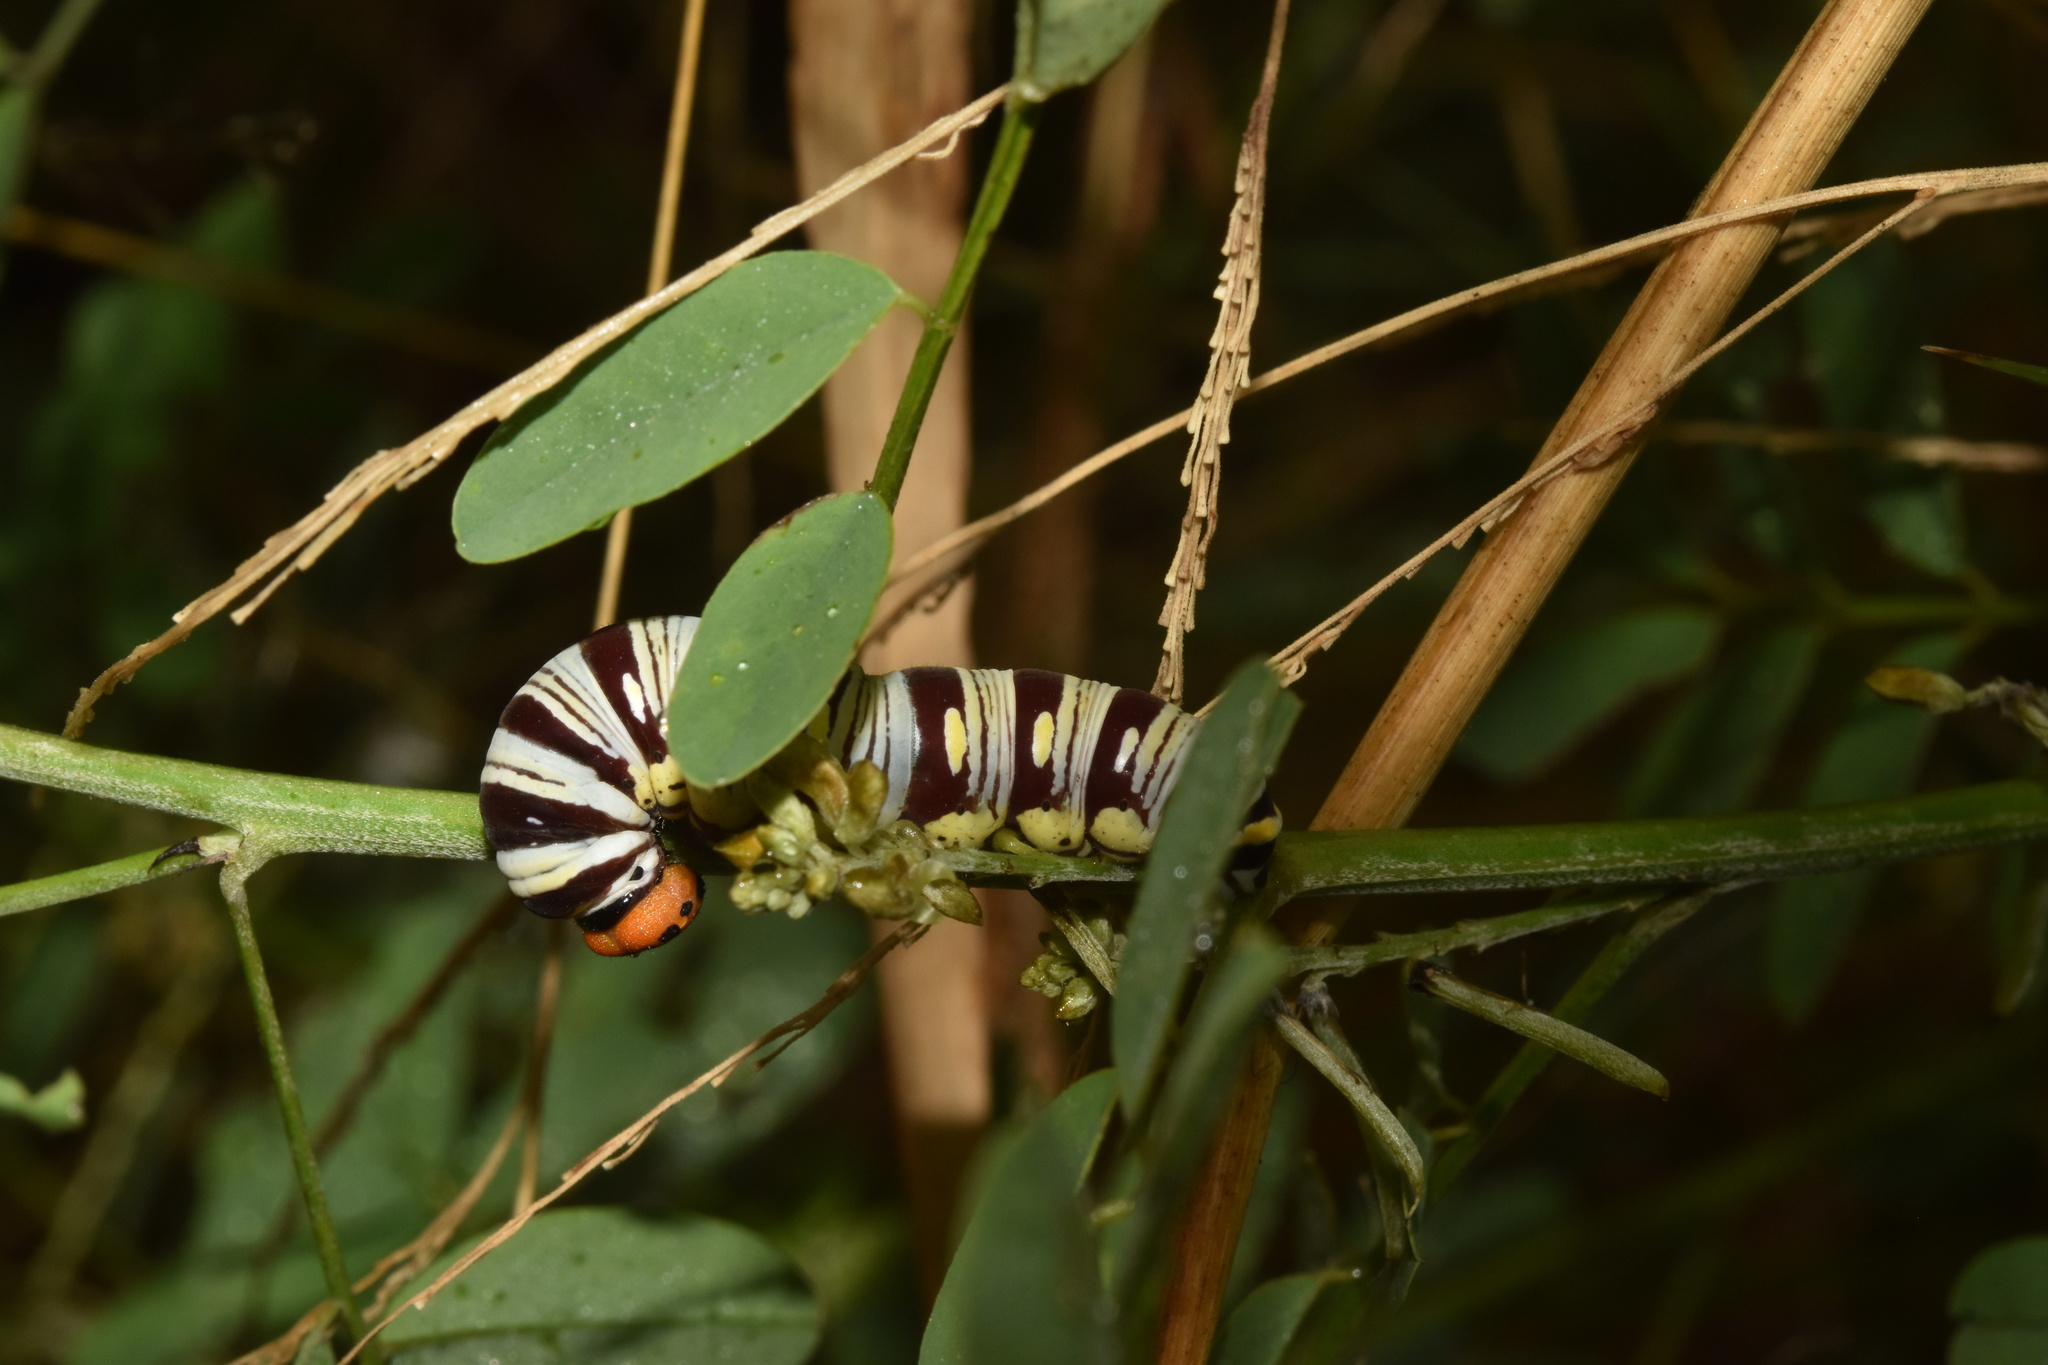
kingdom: Animalia
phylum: Arthropoda
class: Insecta
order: Lepidoptera
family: Hesperiidae
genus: Coeliades
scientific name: Coeliades forestan
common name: Striped policeman
